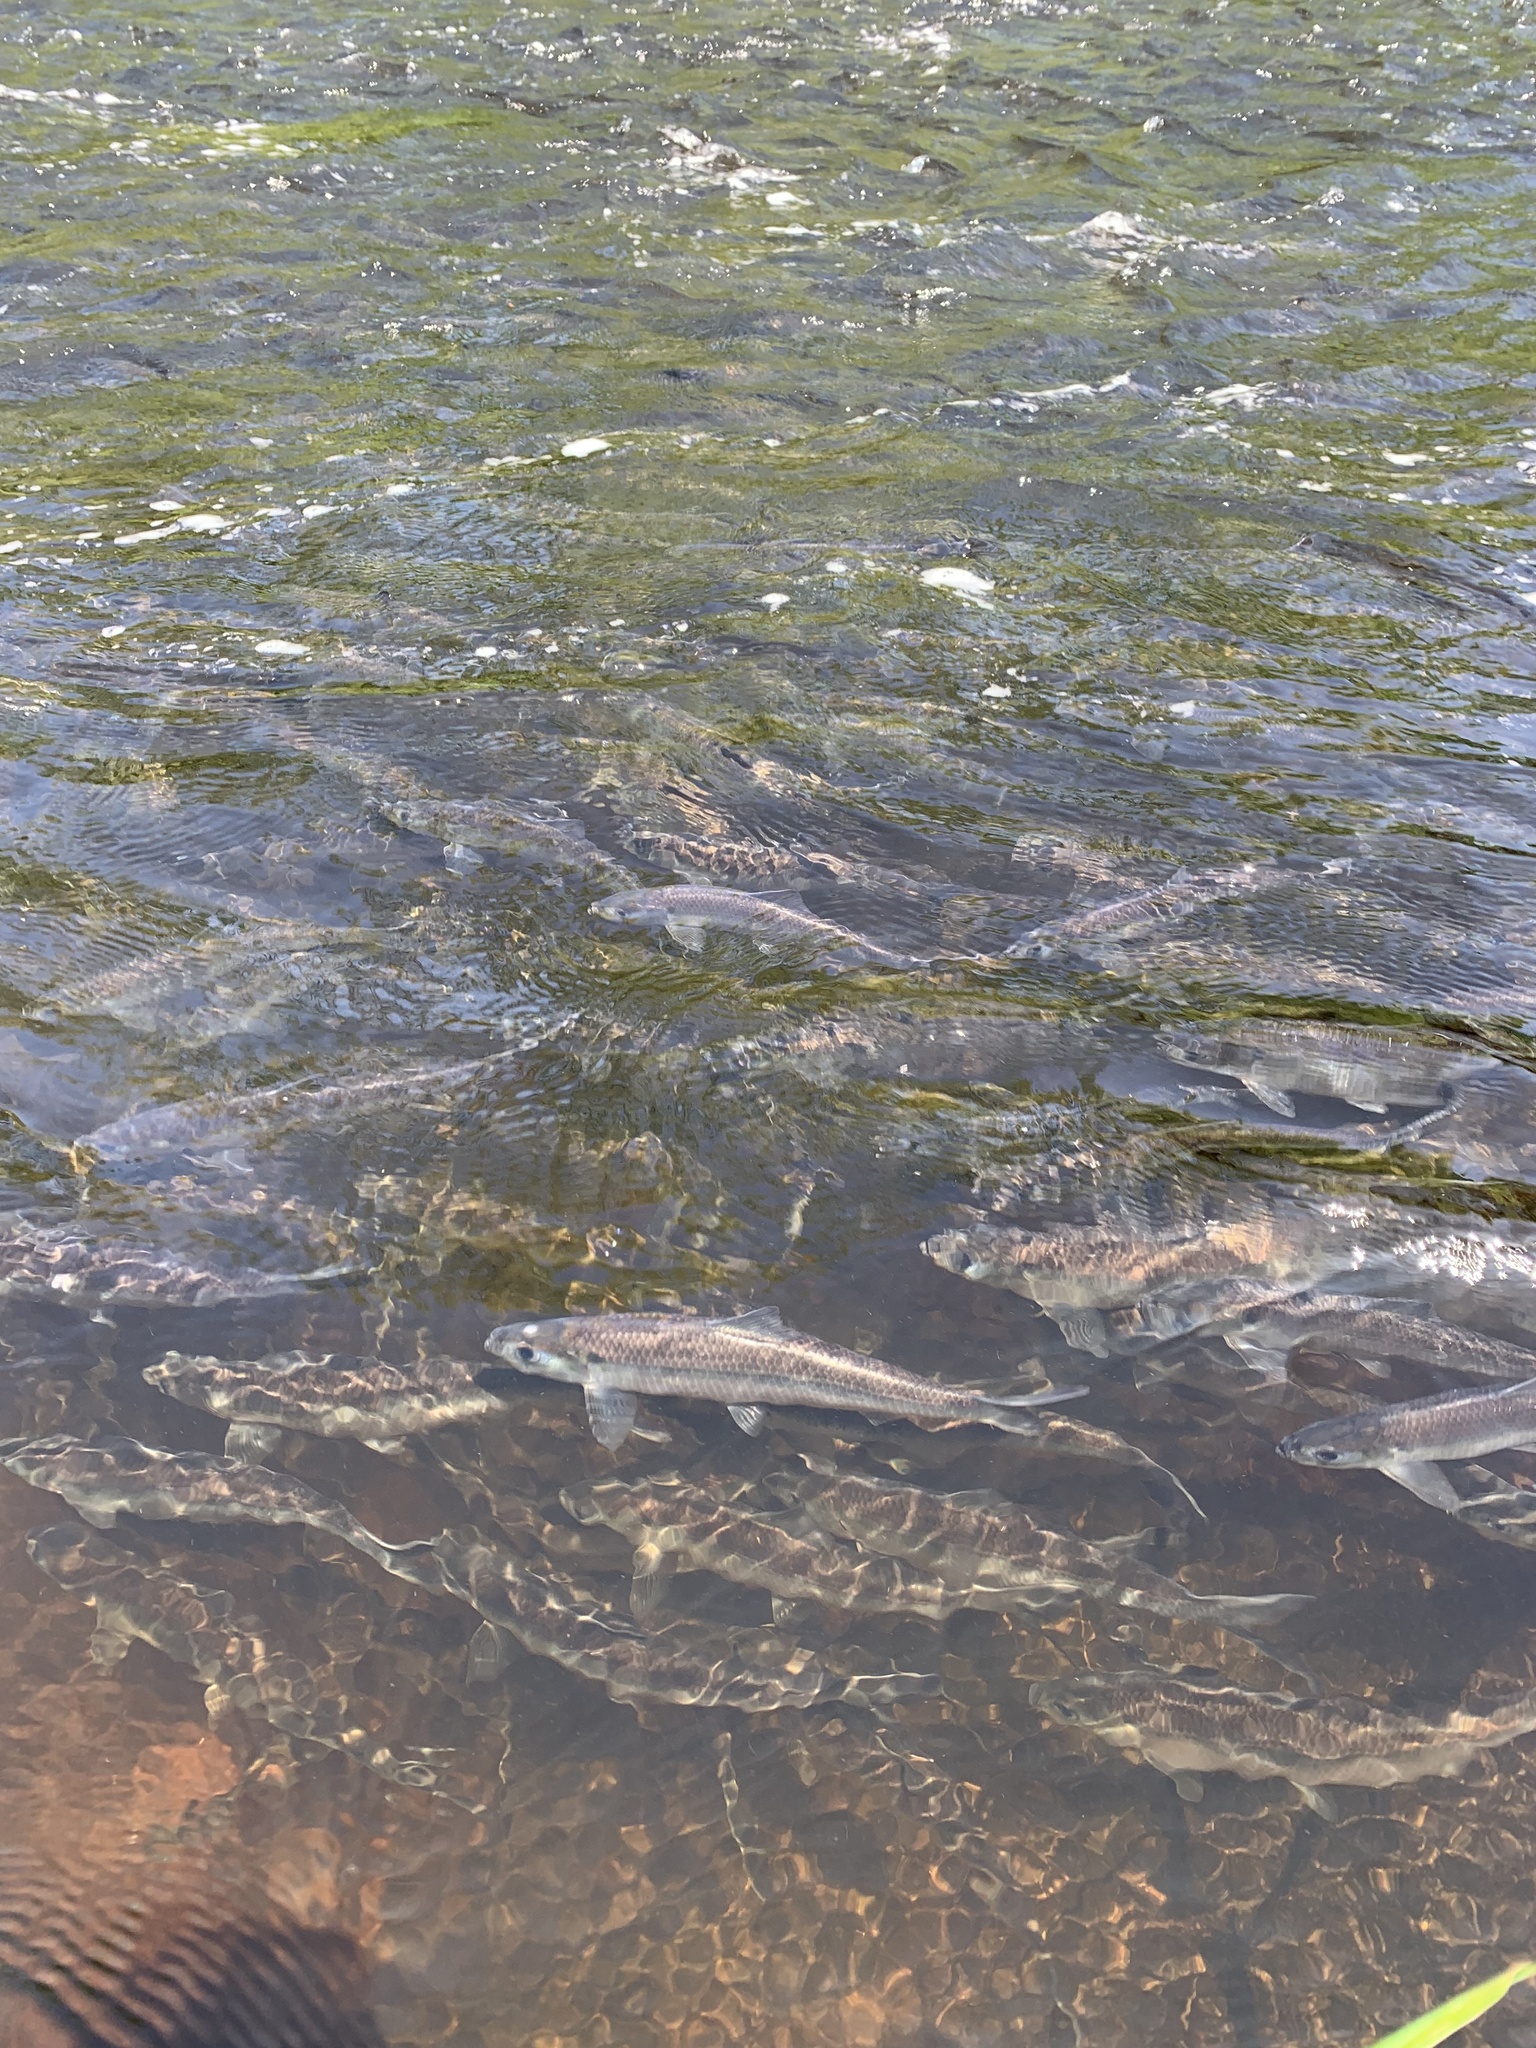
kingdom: Animalia
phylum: Chordata
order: Clupeiformes
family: Clupeidae
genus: Alosa
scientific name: Alosa pseudoharengus
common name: Alewife
